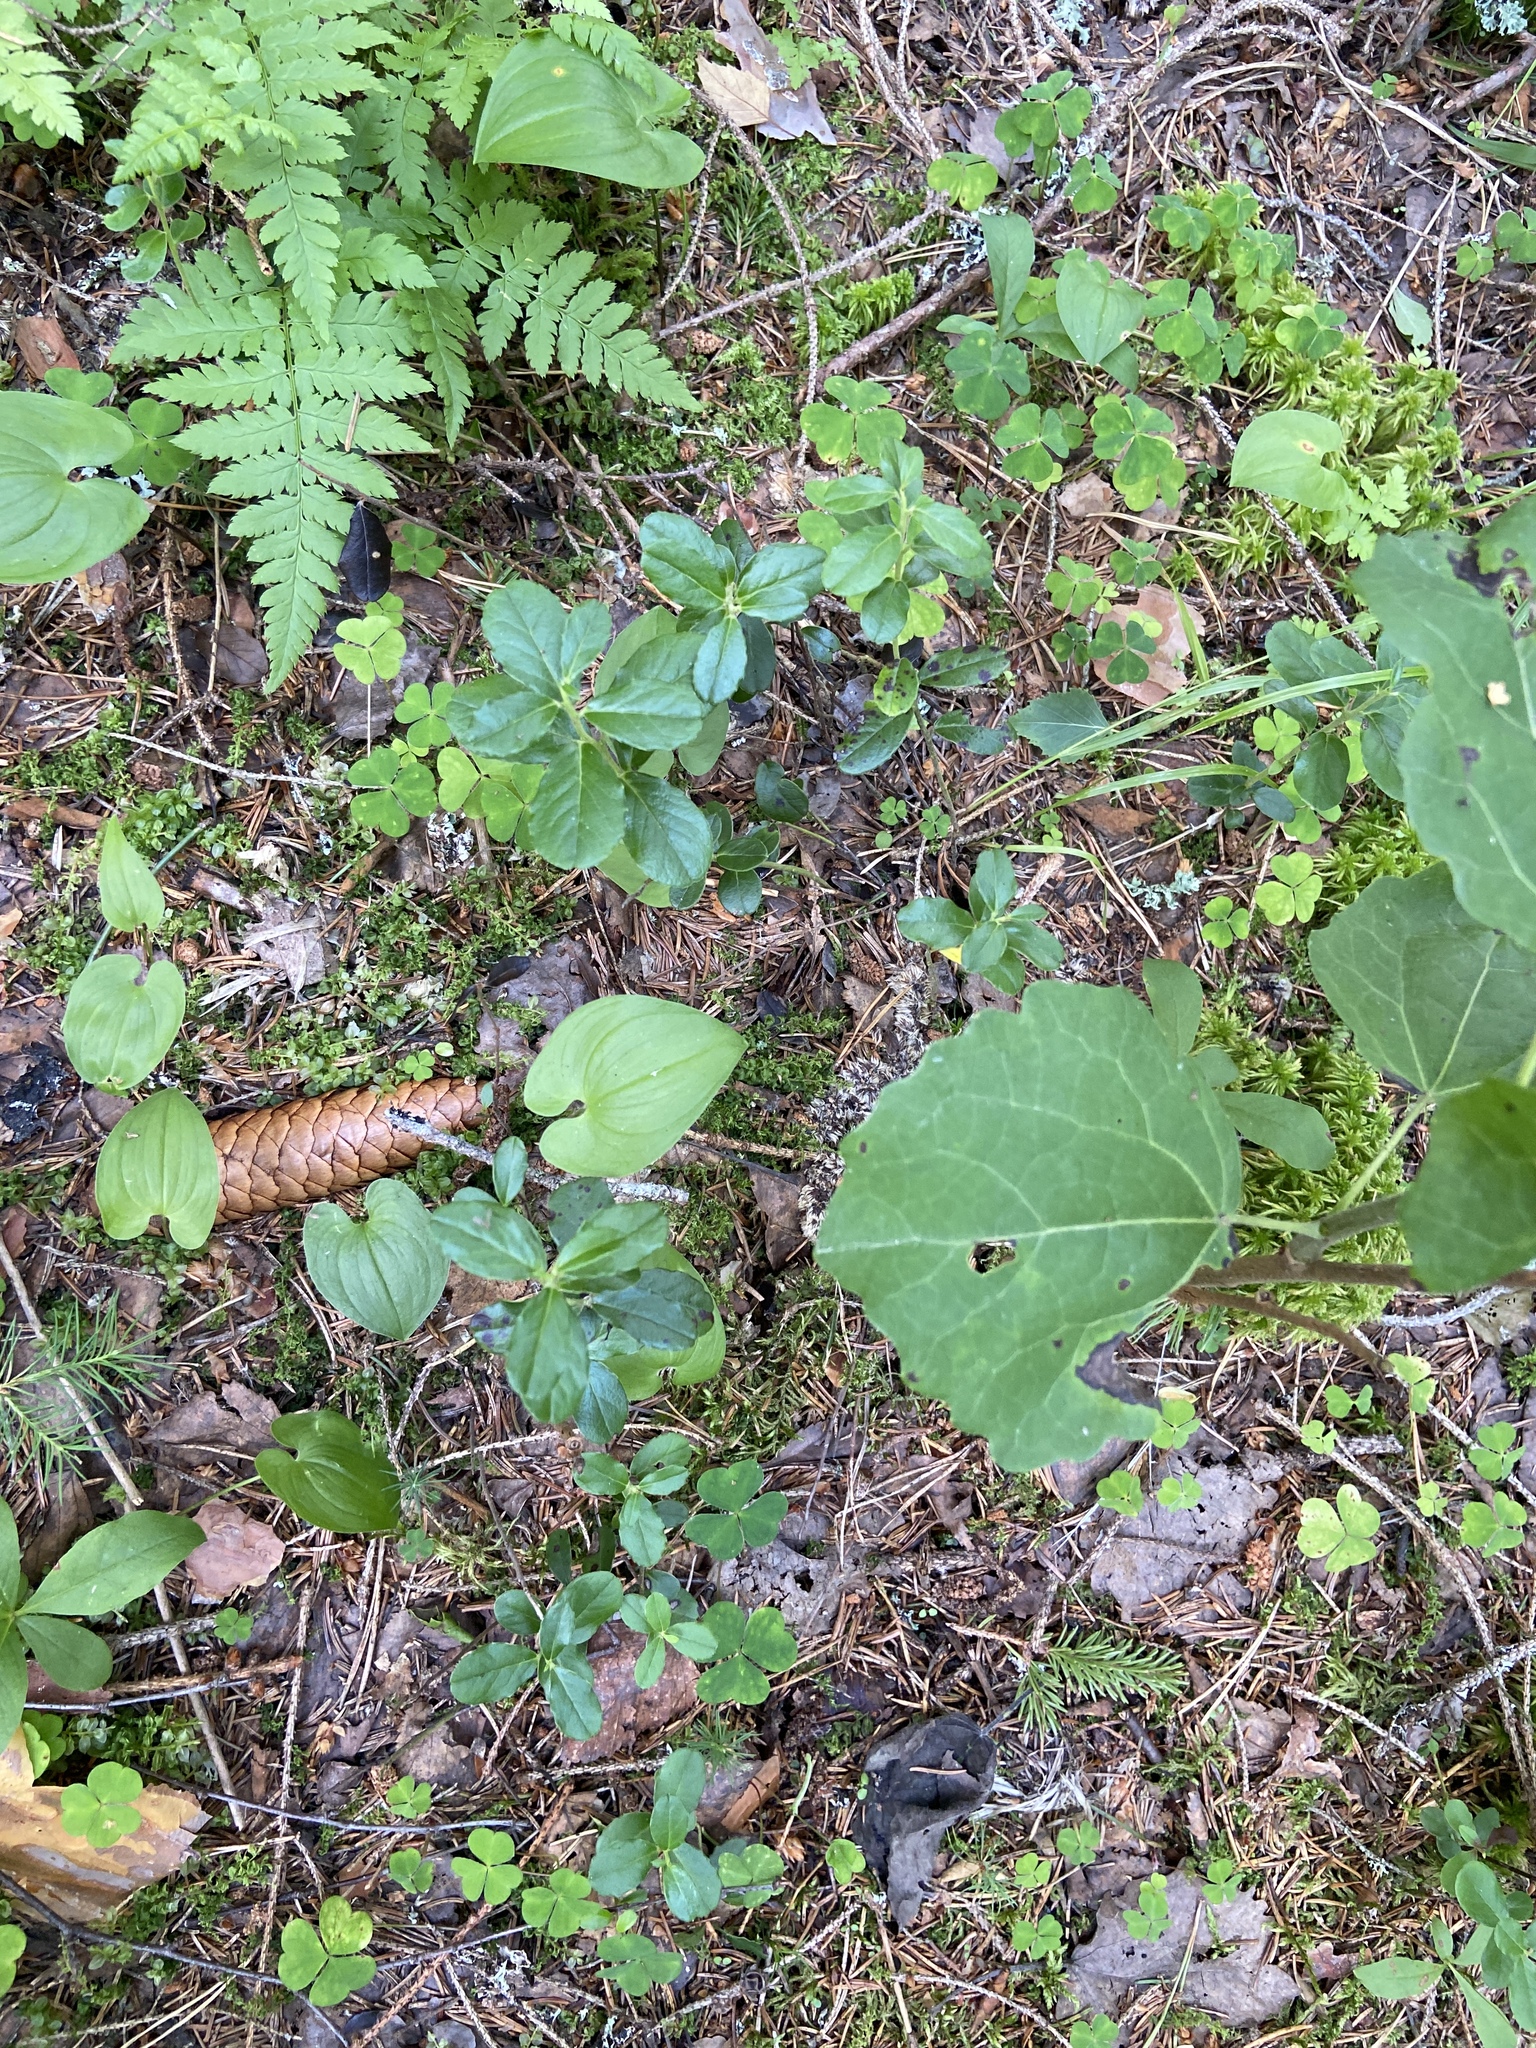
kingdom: Plantae
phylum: Tracheophyta
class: Magnoliopsida
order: Ericales
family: Ericaceae
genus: Vaccinium
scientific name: Vaccinium vitis-idaea
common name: Cowberry
